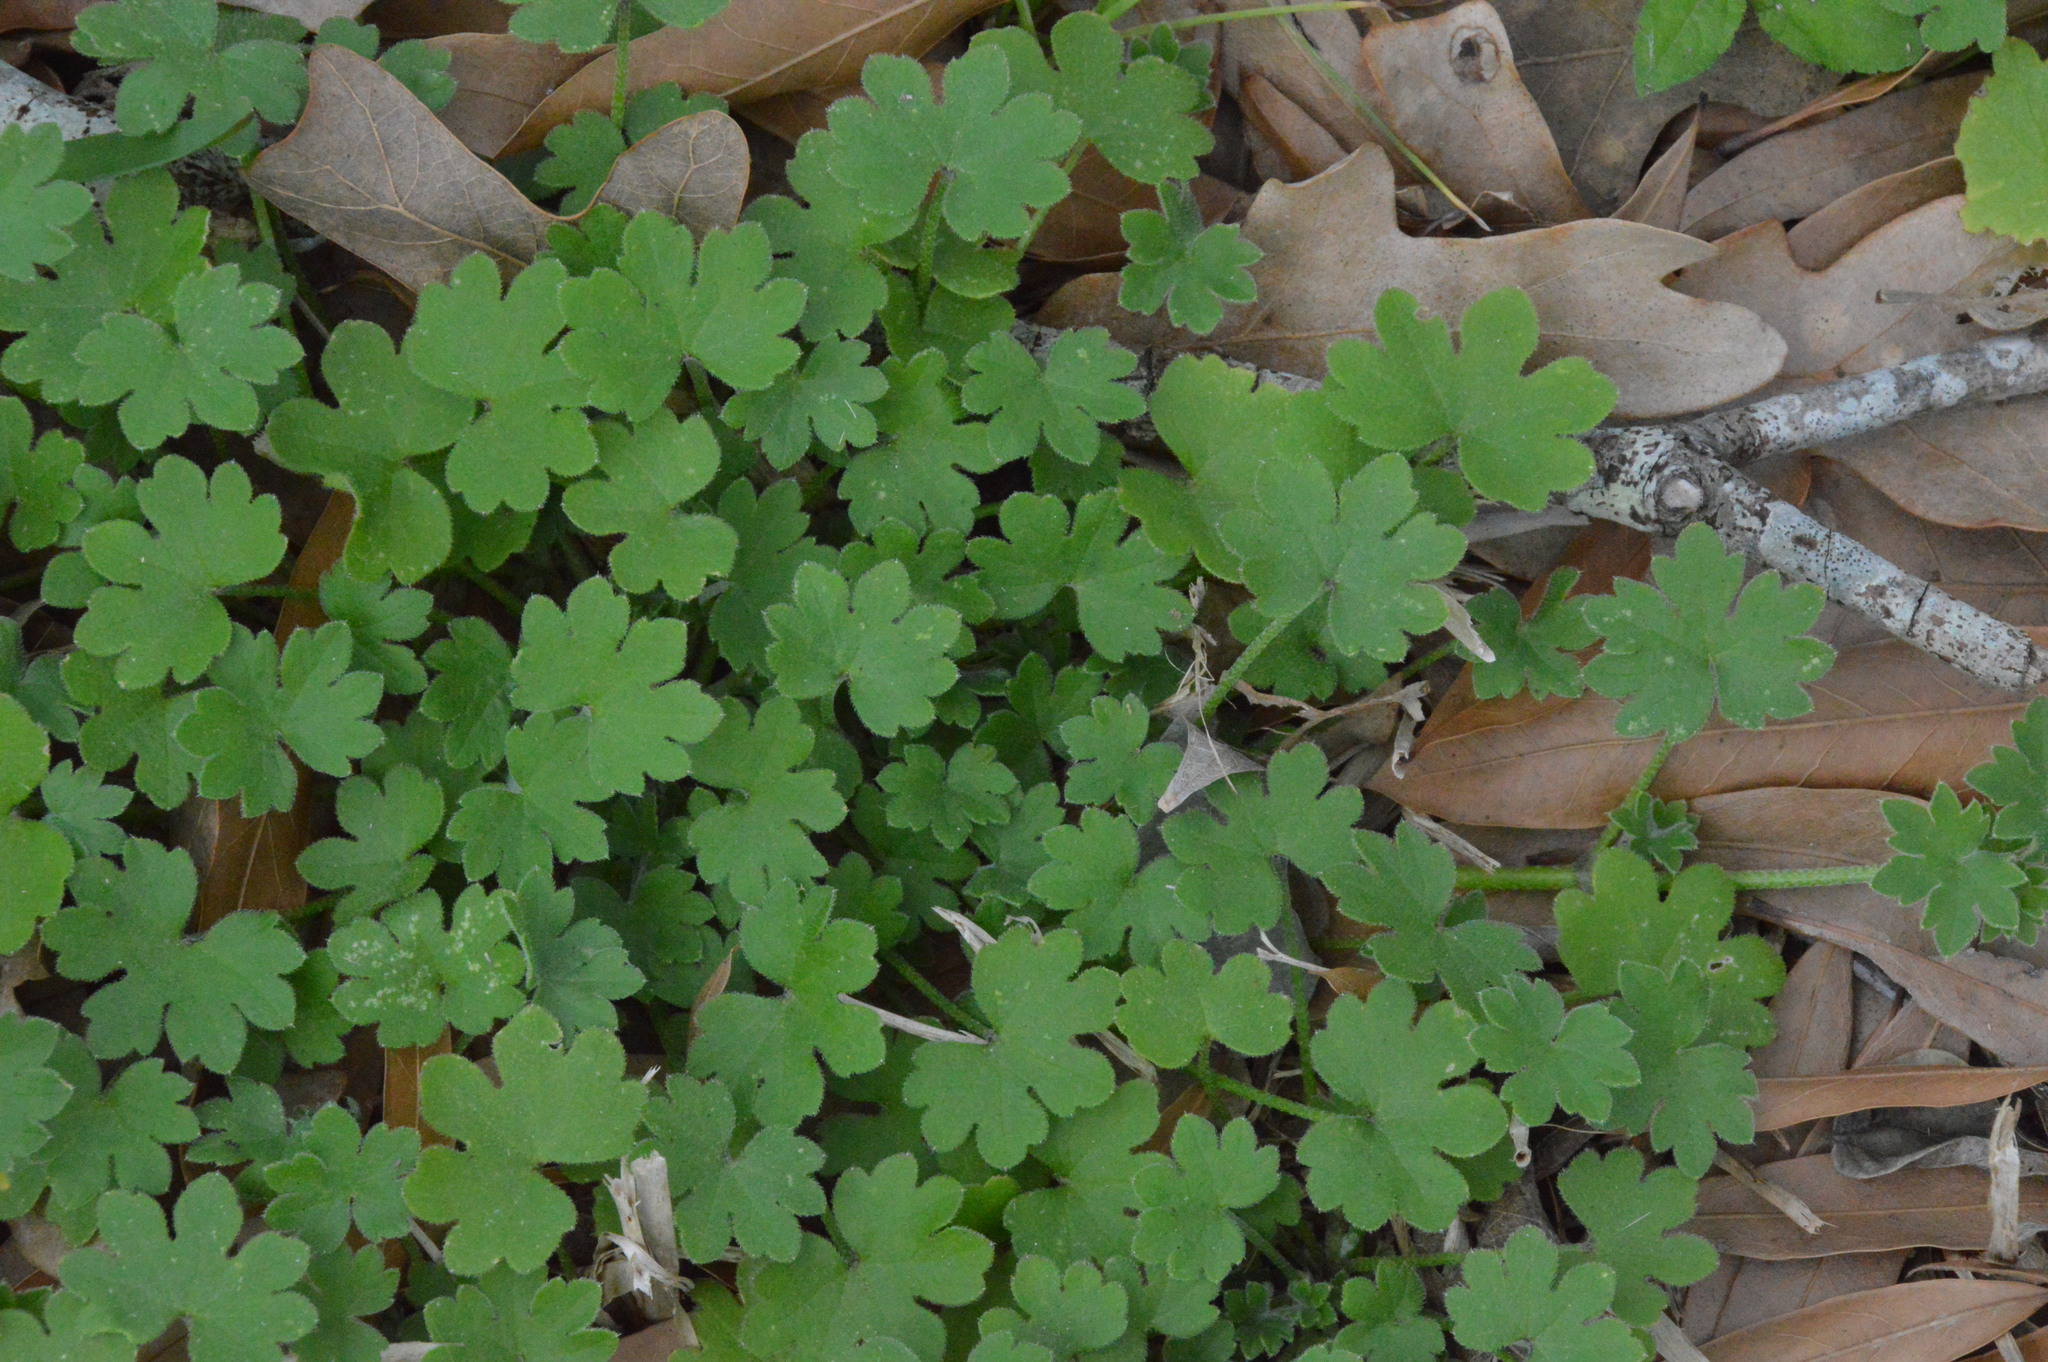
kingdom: Plantae
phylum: Tracheophyta
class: Magnoliopsida
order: Apiales
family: Apiaceae
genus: Bowlesia
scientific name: Bowlesia incana
